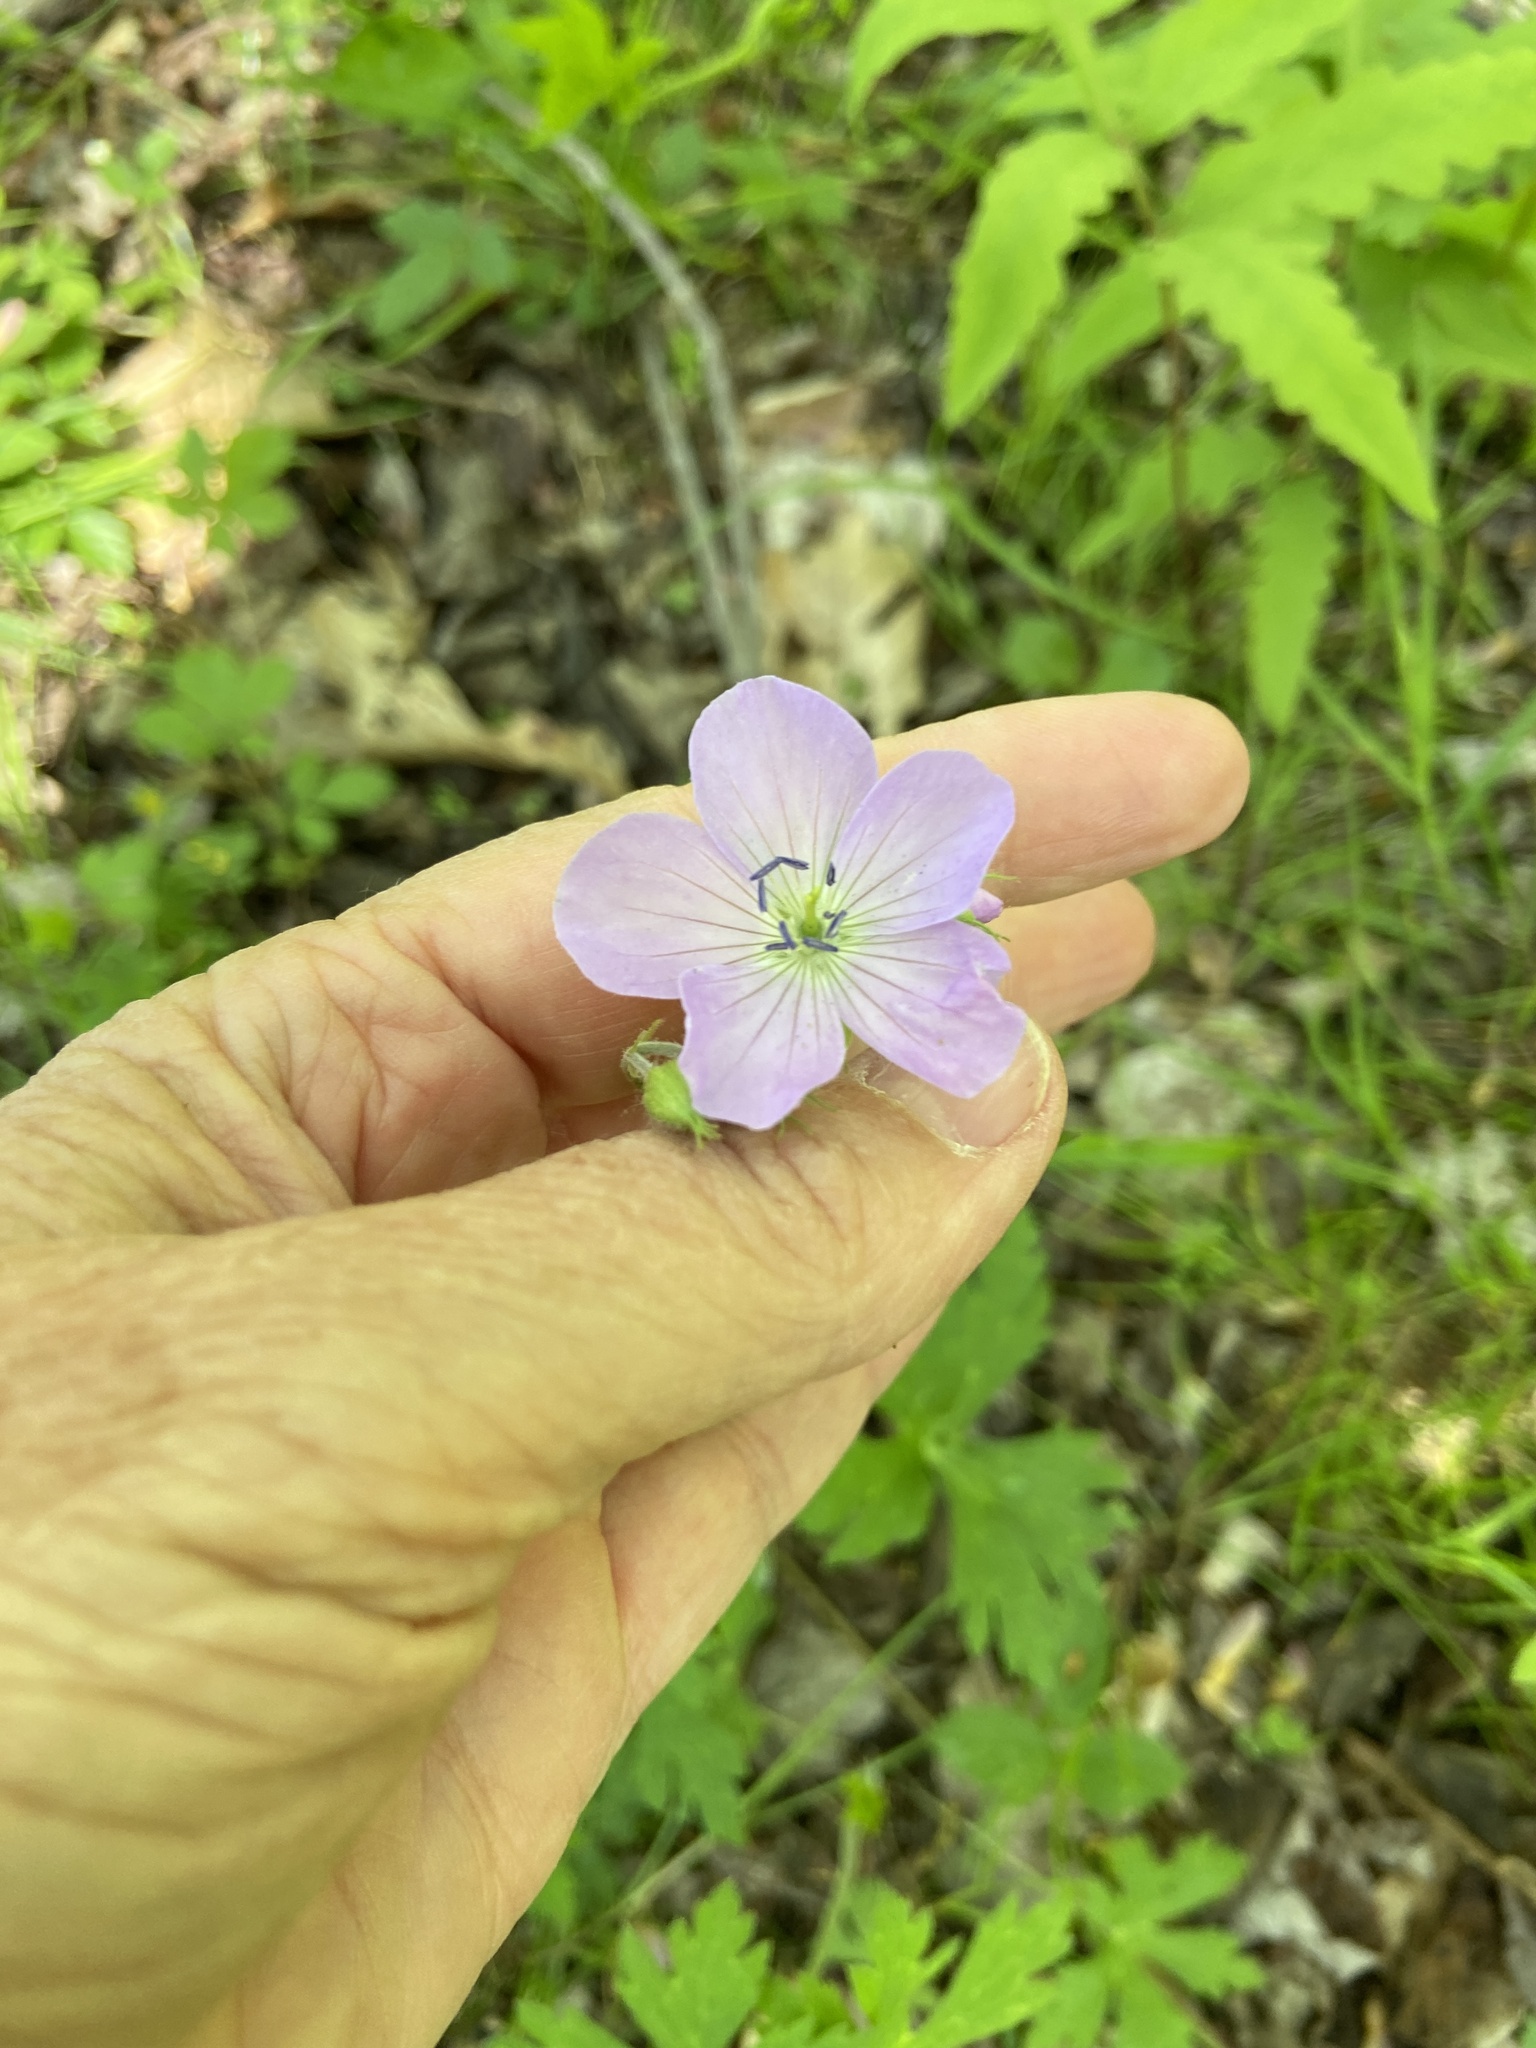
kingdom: Plantae
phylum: Tracheophyta
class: Magnoliopsida
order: Geraniales
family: Geraniaceae
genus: Geranium
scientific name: Geranium maculatum
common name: Spotted geranium
